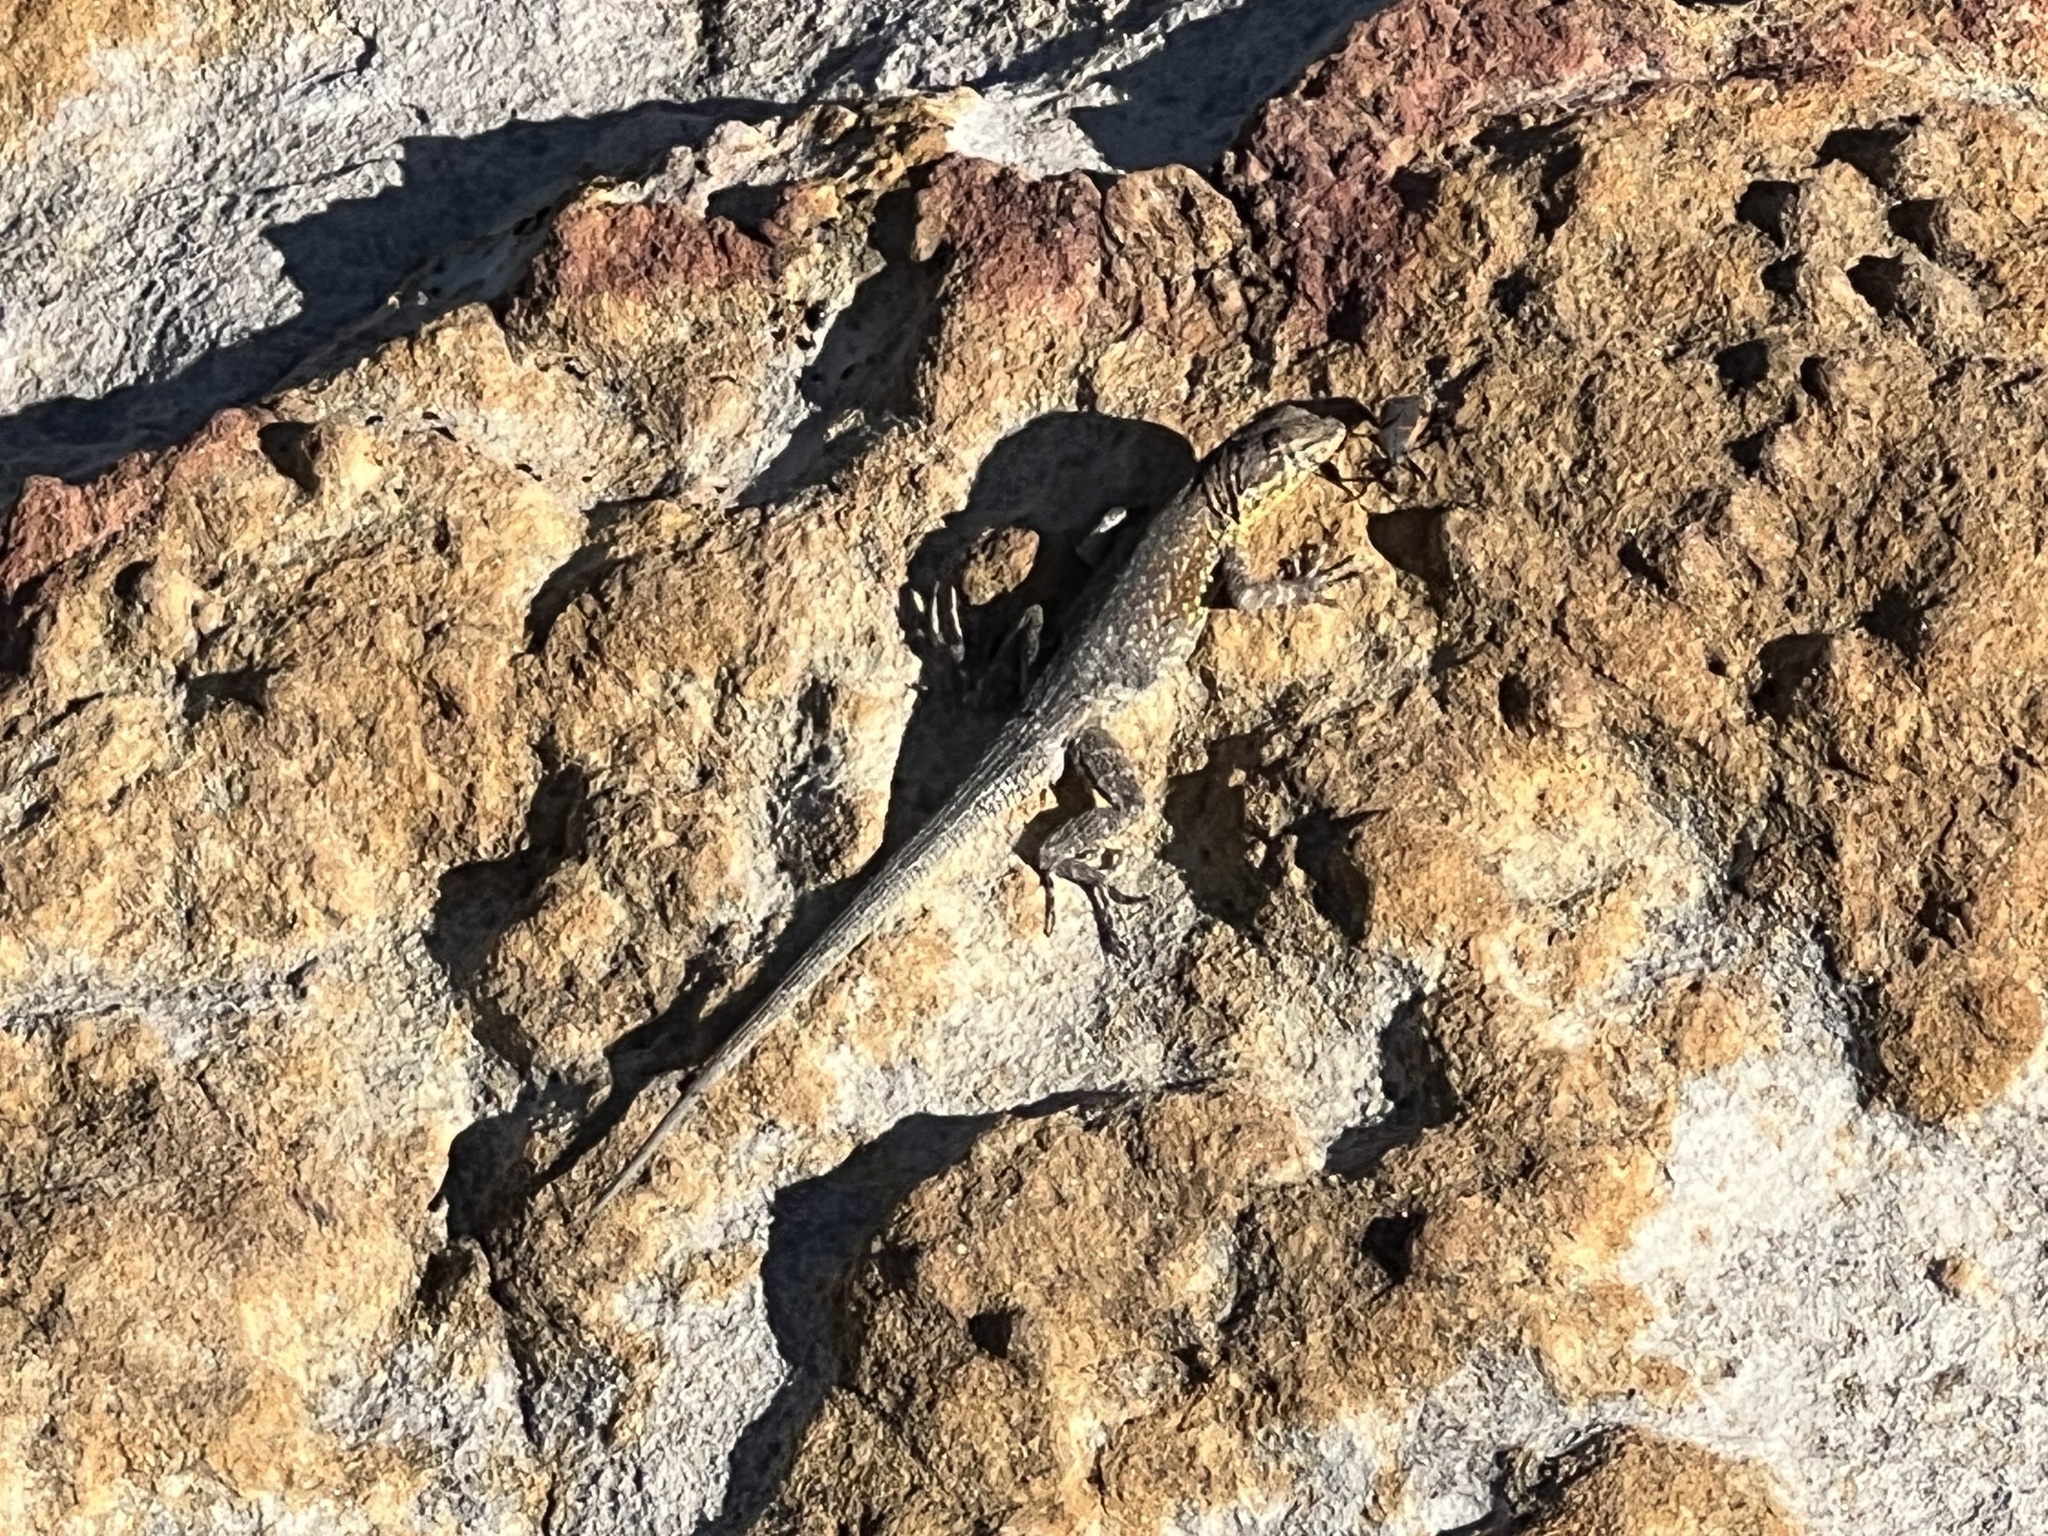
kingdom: Animalia
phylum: Chordata
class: Squamata
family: Phrynosomatidae
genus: Uta
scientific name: Uta stansburiana
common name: Side-blotched lizard
